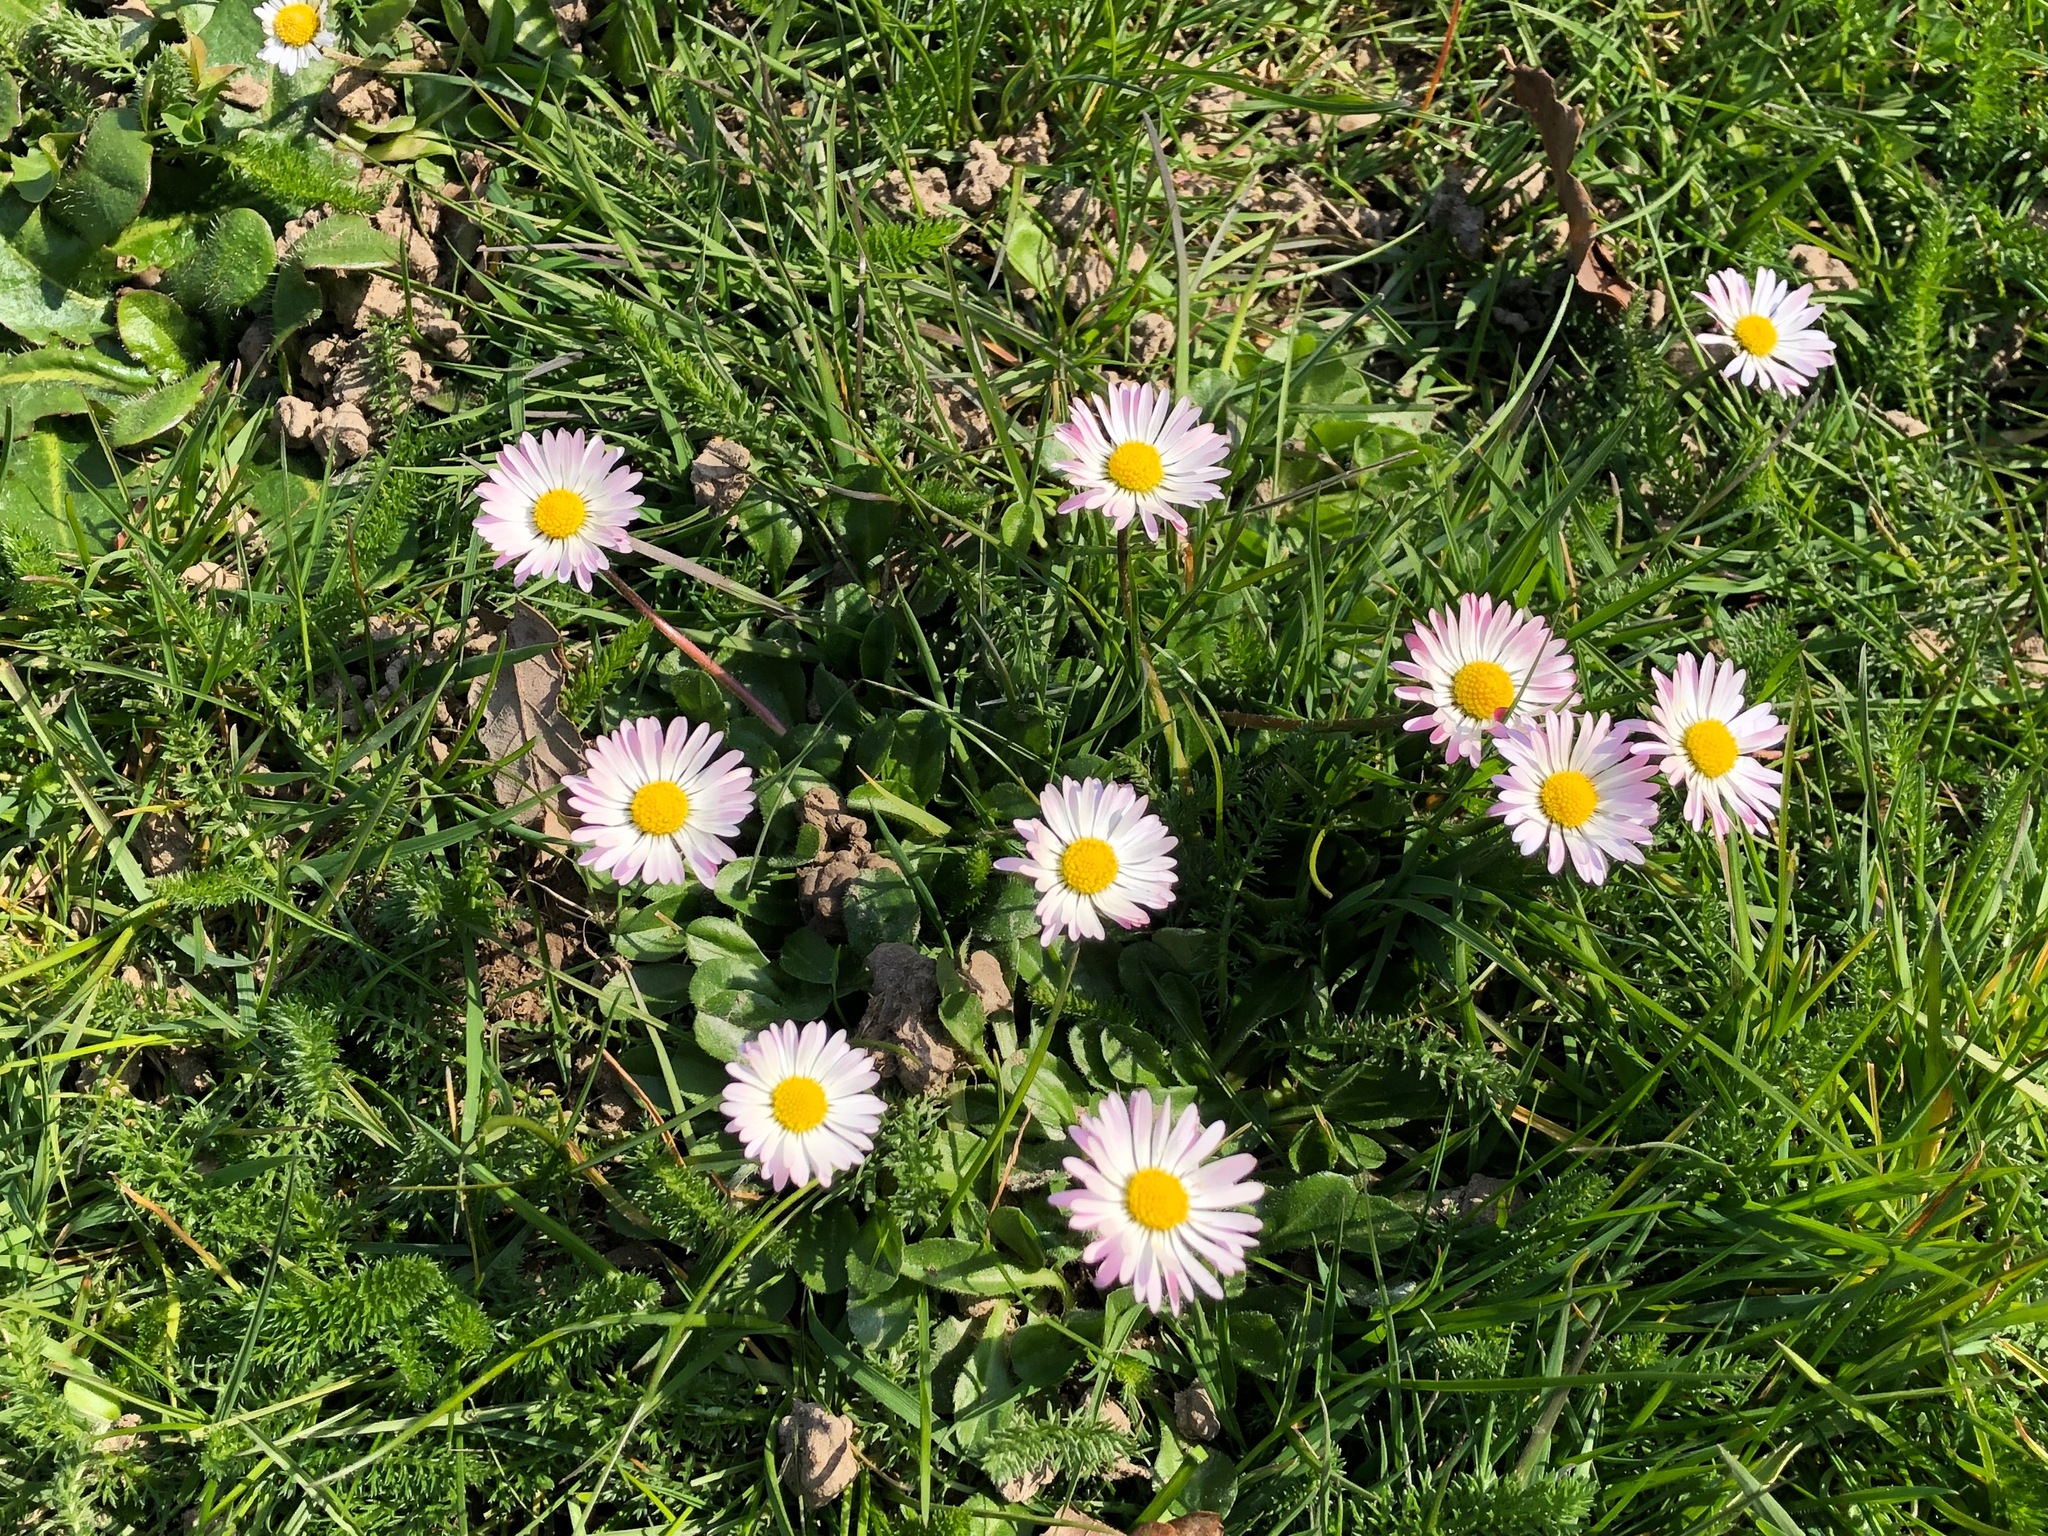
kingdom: Plantae
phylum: Tracheophyta
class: Magnoliopsida
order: Asterales
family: Asteraceae
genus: Bellis
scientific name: Bellis perennis
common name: Lawndaisy
